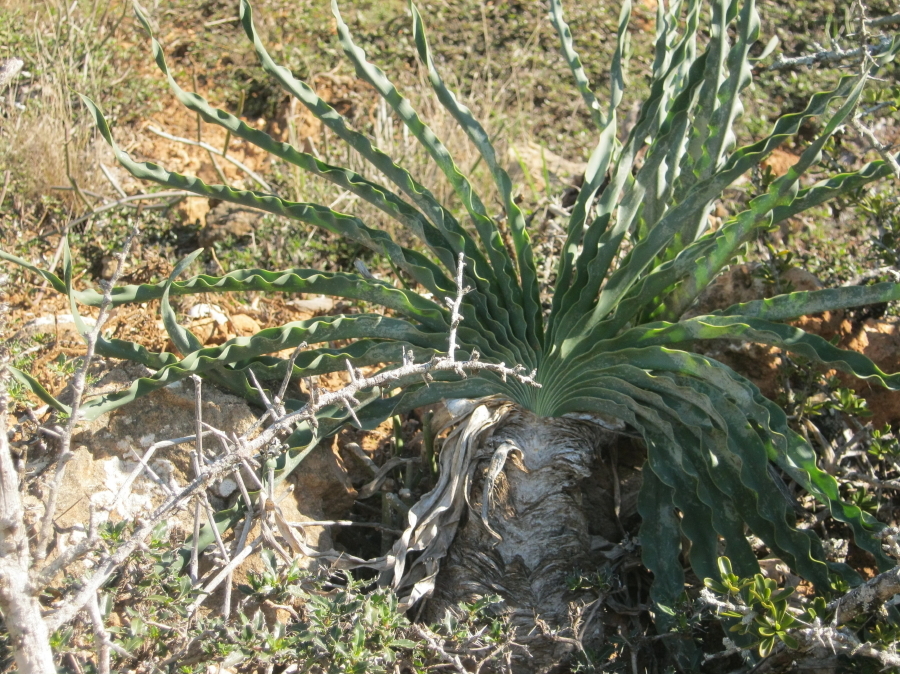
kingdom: Plantae
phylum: Tracheophyta
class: Liliopsida
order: Asparagales
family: Amaryllidaceae
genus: Boophone
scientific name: Boophone disticha
